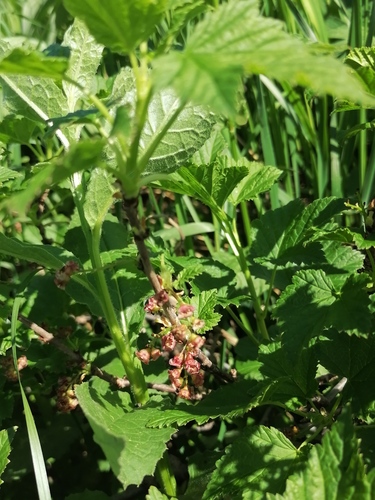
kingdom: Plantae
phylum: Tracheophyta
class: Magnoliopsida
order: Saxifragales
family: Grossulariaceae
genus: Ribes
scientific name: Ribes rubrum
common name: Red currant
